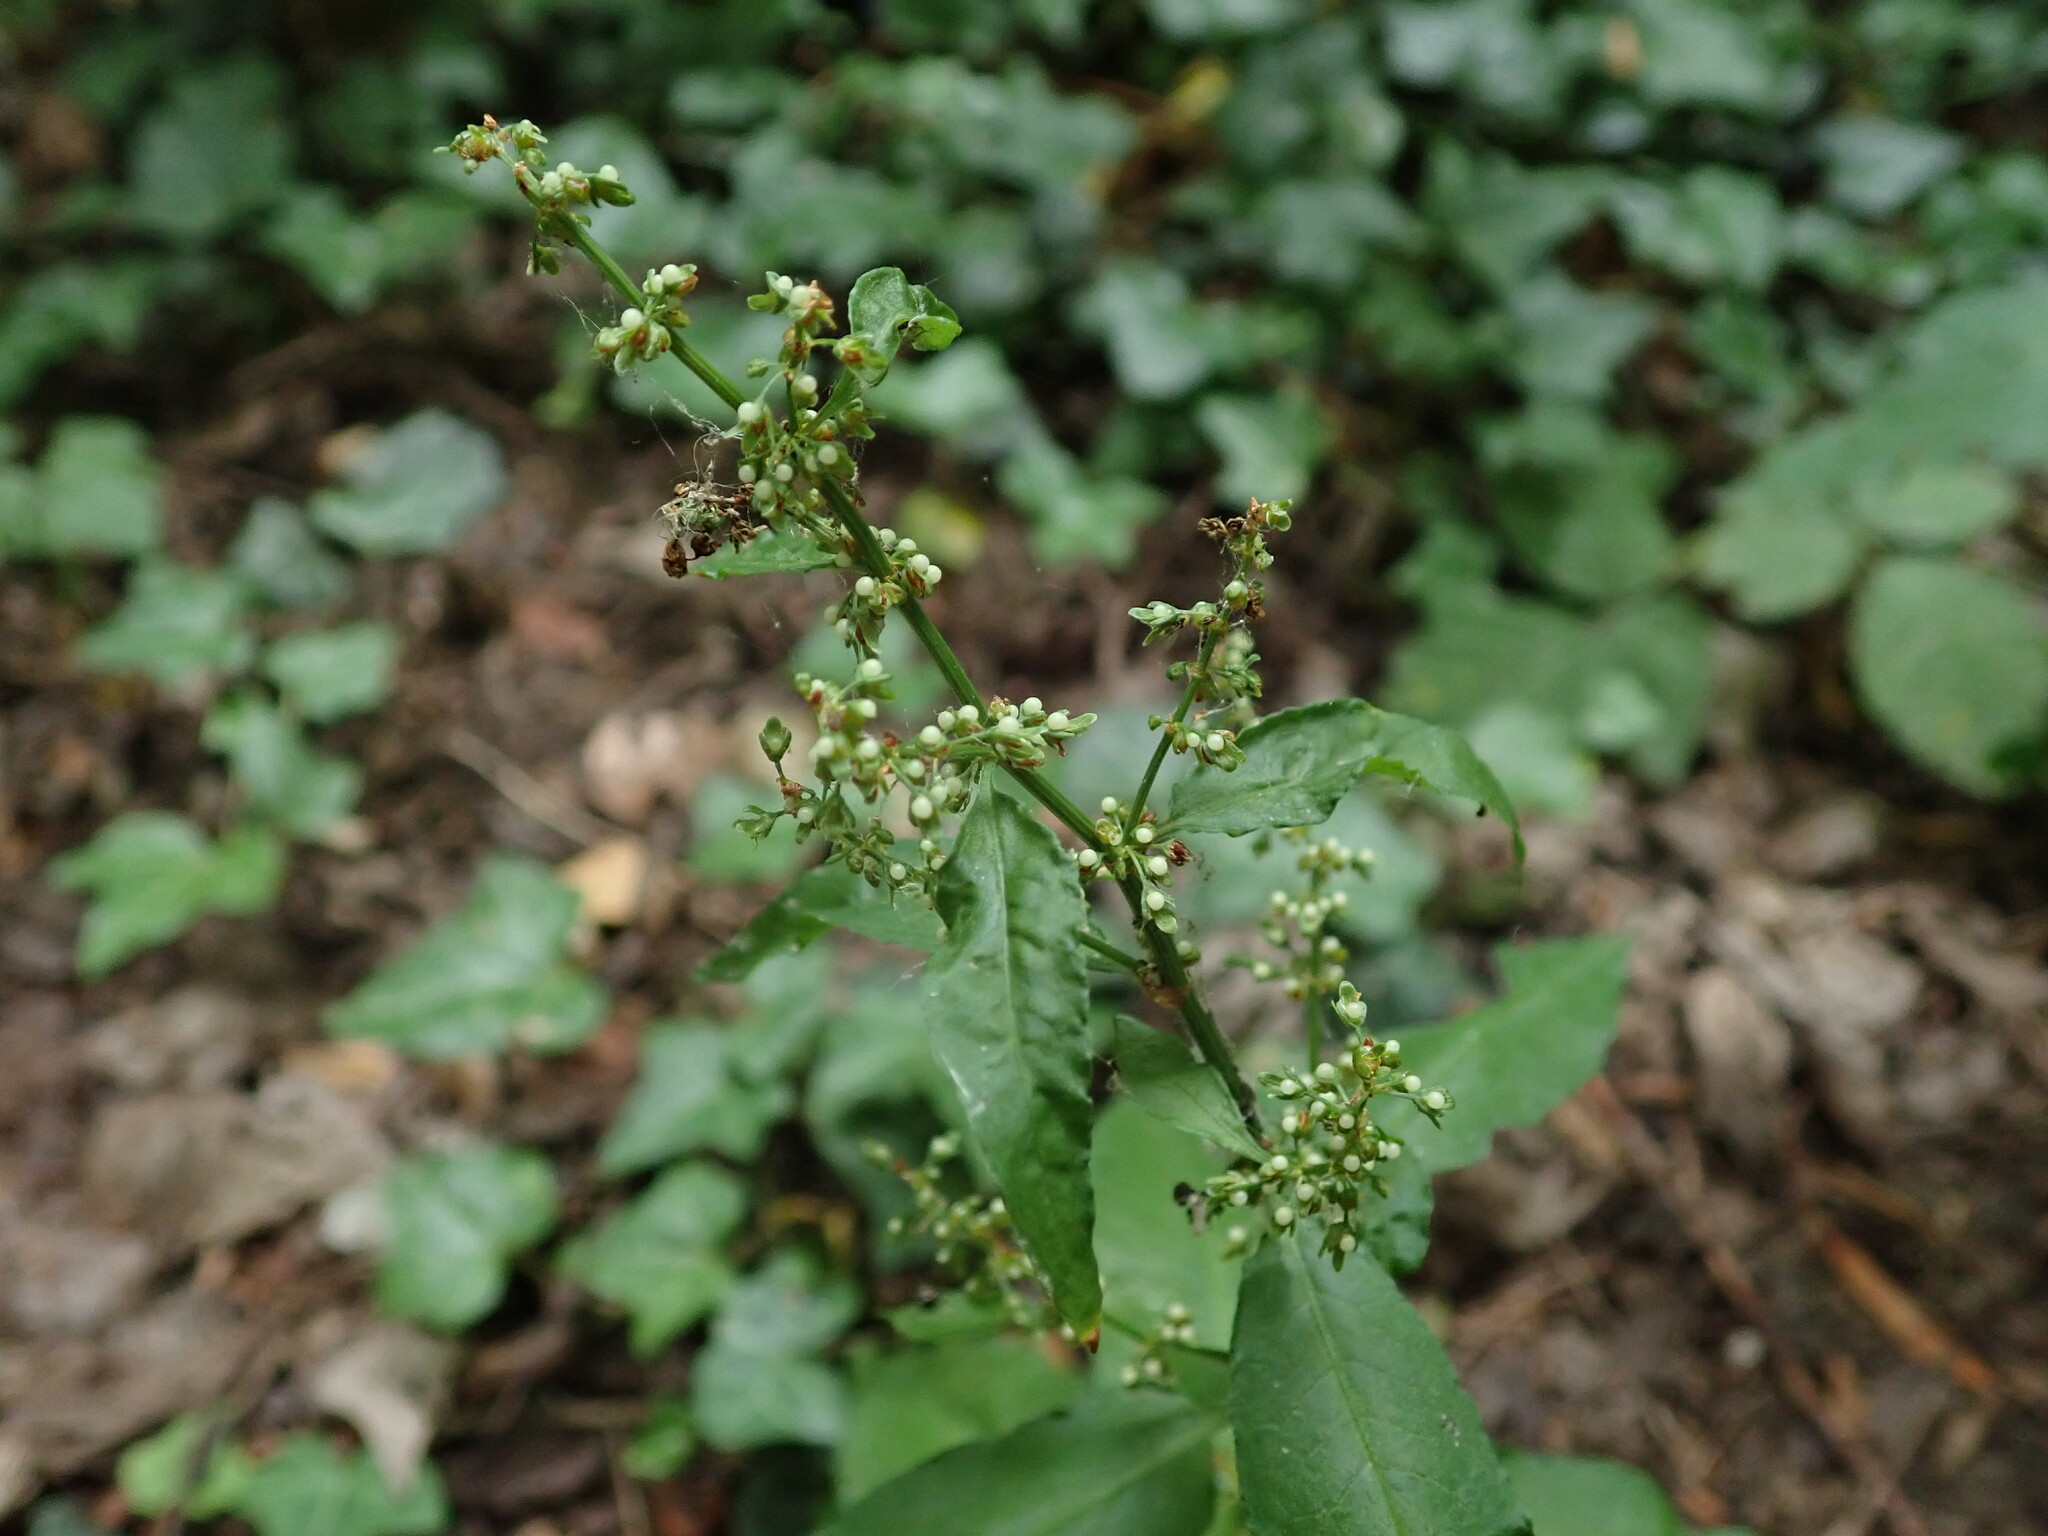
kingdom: Plantae
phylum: Tracheophyta
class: Magnoliopsida
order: Caryophyllales
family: Polygonaceae
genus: Rumex
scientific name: Rumex sanguineus
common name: Wood dock
